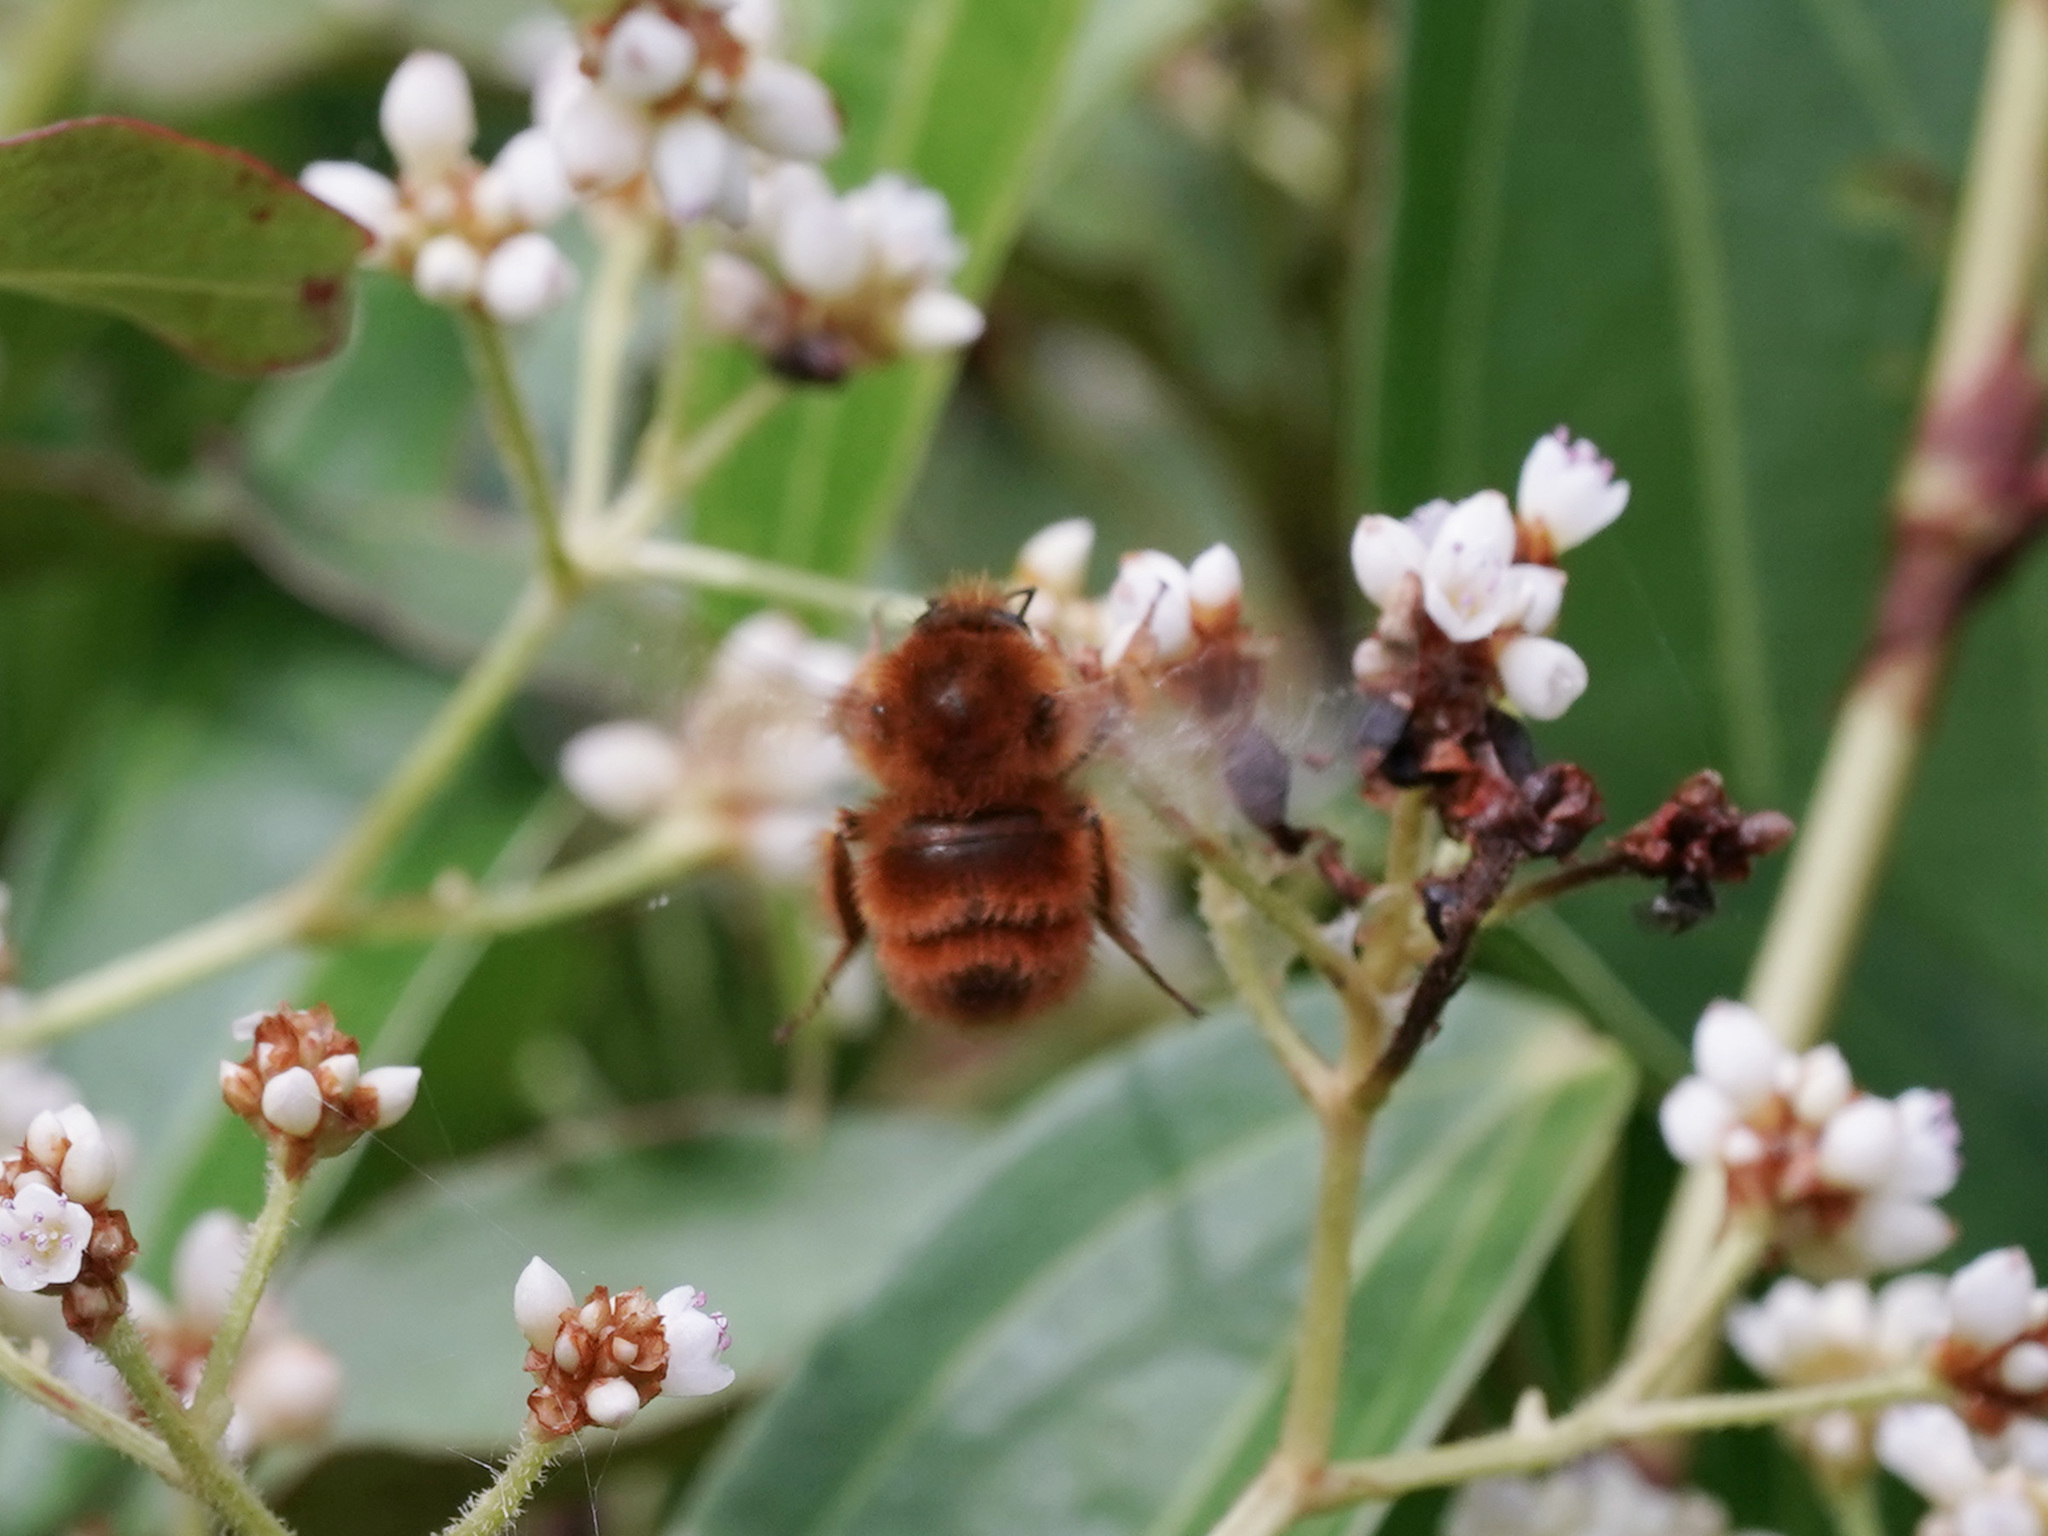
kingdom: Animalia
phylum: Arthropoda
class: Insecta
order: Hymenoptera
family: Apidae
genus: Bombus
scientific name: Bombus flavescens
